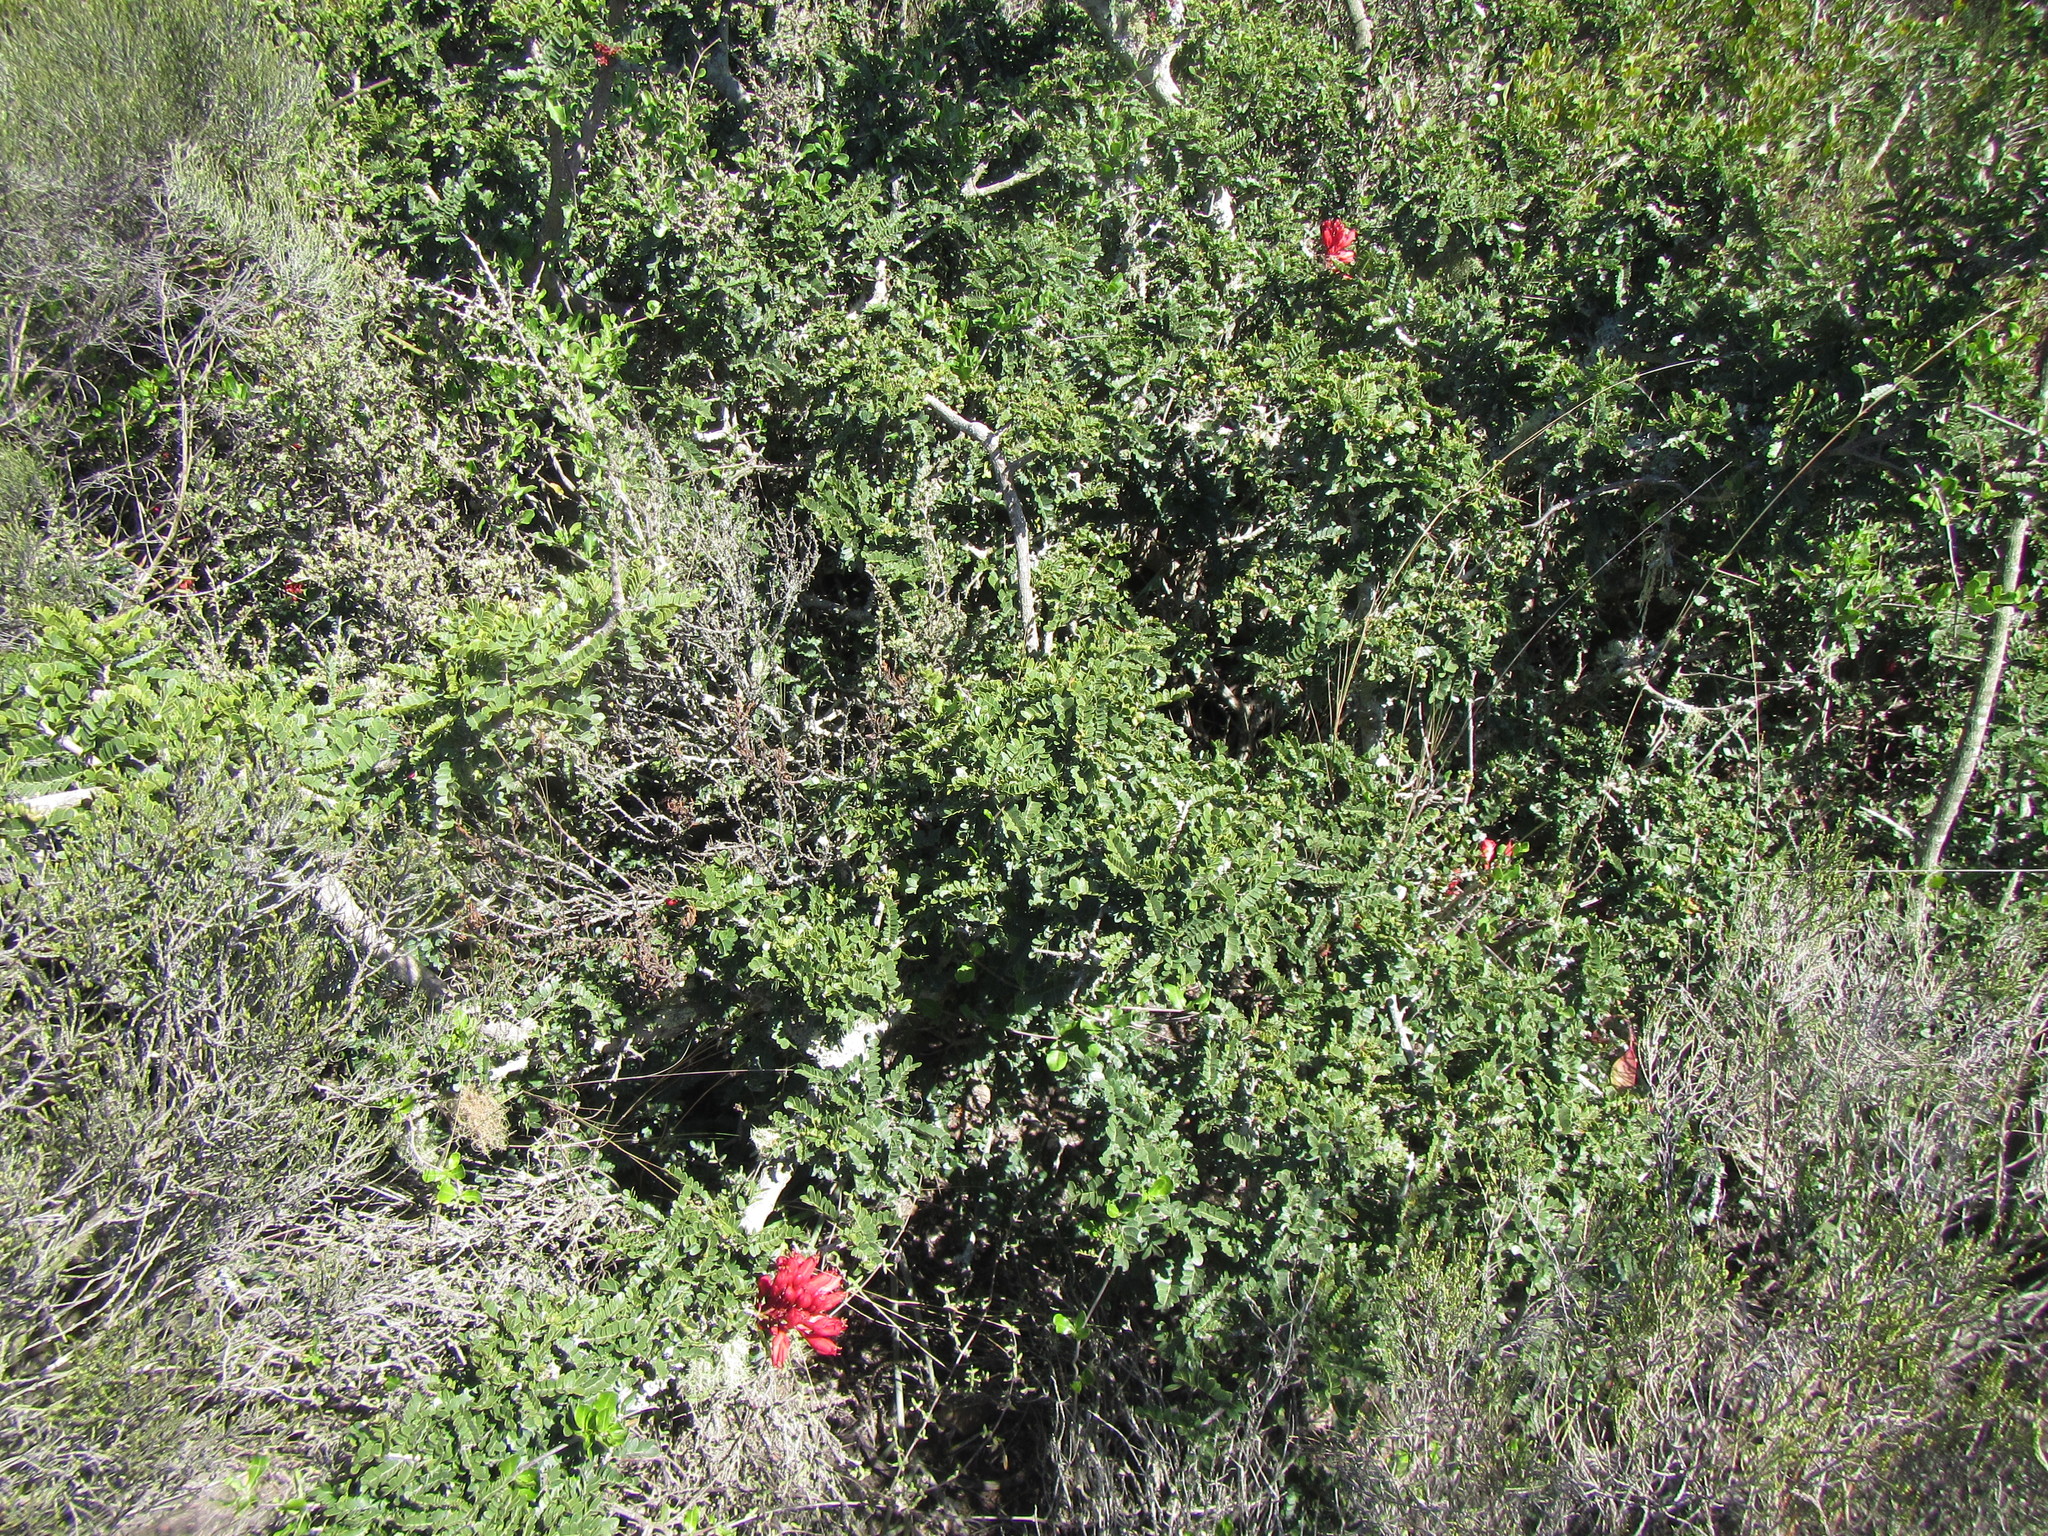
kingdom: Plantae
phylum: Tracheophyta
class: Magnoliopsida
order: Fabales
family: Fabaceae
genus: Schotia
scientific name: Schotia afra
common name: Hottentot's bean
